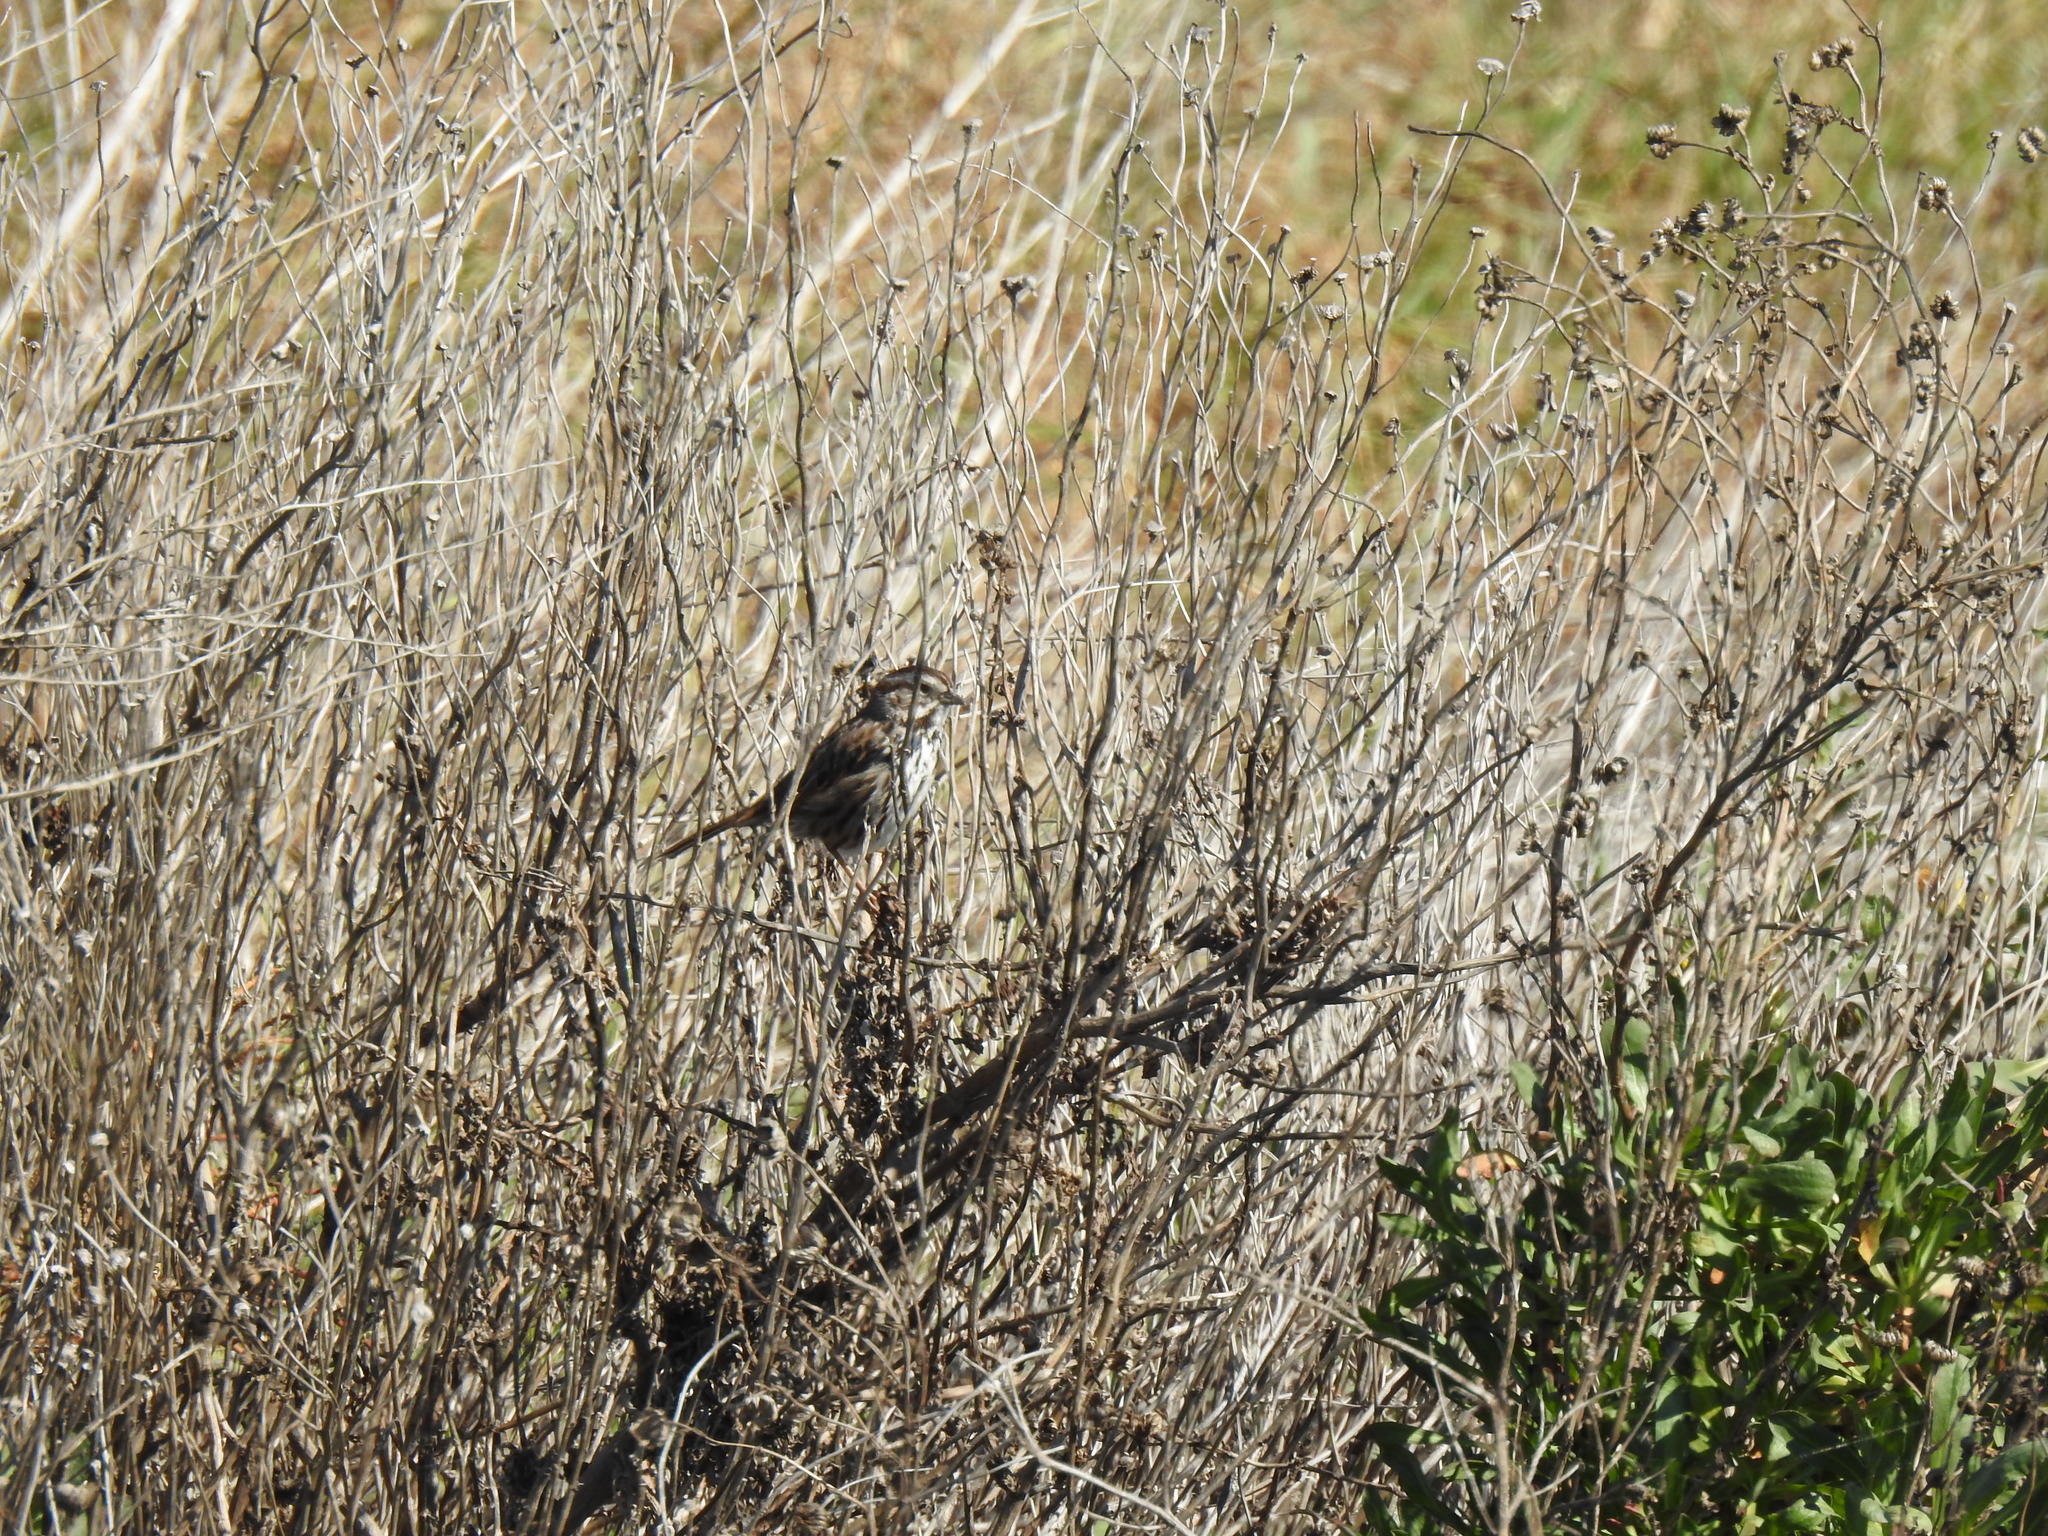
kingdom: Animalia
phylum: Chordata
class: Aves
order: Passeriformes
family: Passerellidae
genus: Melospiza
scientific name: Melospiza melodia
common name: Song sparrow
